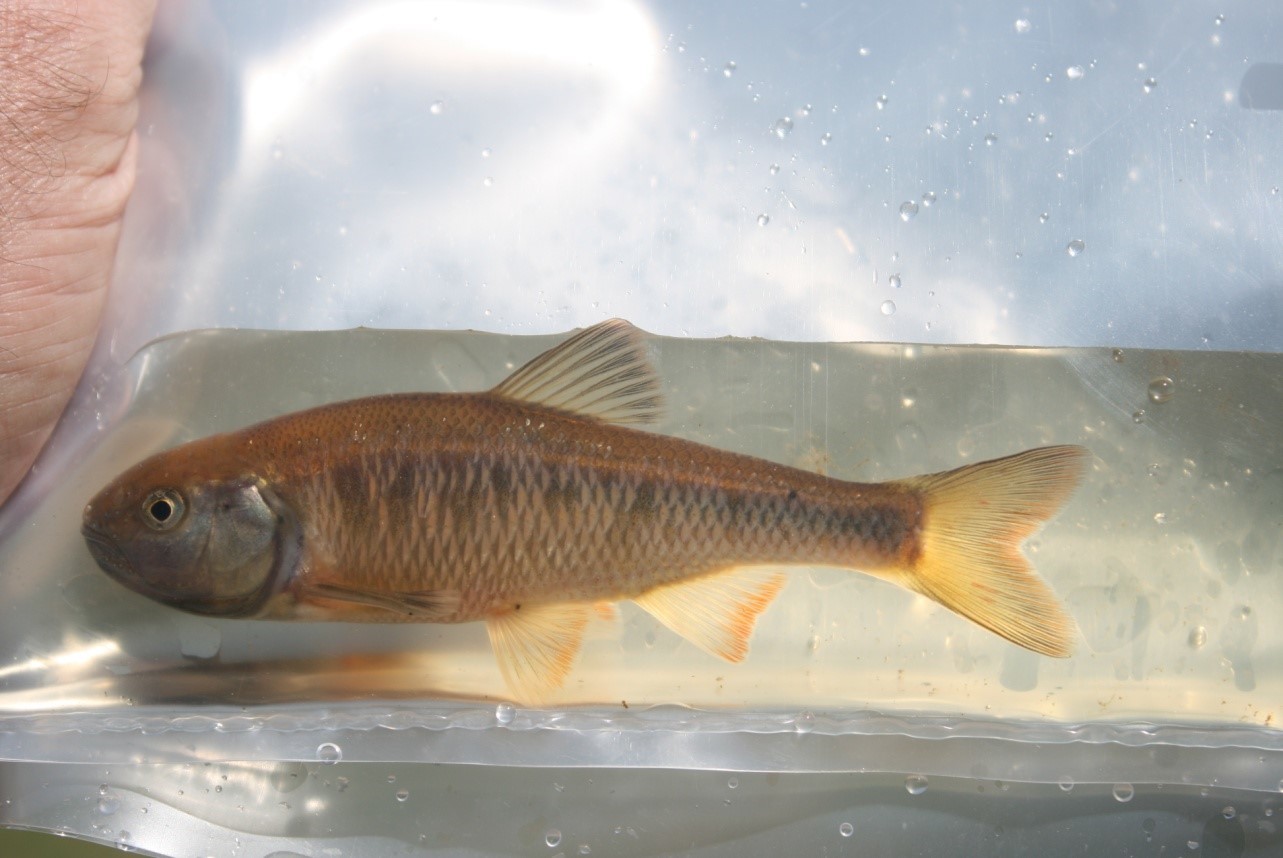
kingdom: Animalia
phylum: Chordata
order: Cypriniformes
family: Cyprinidae
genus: Luxilus
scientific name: Luxilus cornutus
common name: Common shiner
